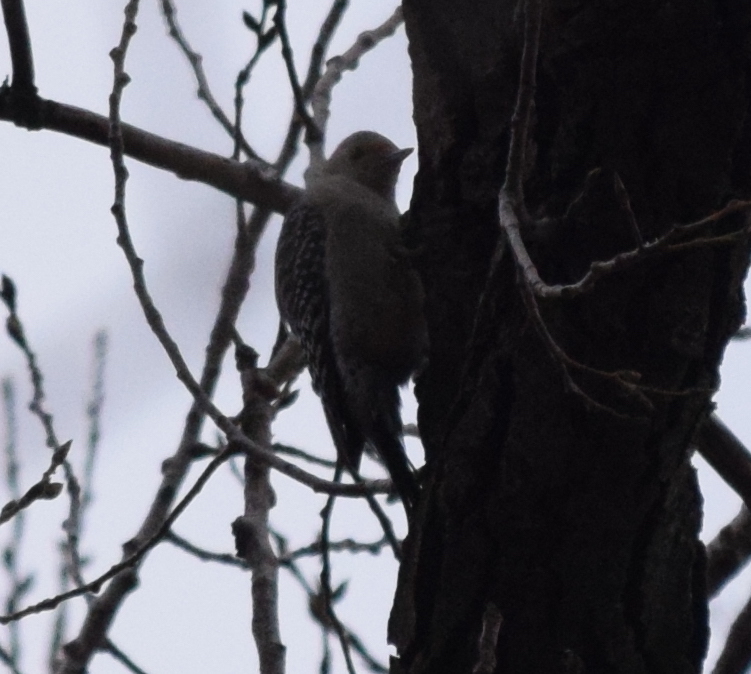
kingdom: Animalia
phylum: Chordata
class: Aves
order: Piciformes
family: Picidae
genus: Melanerpes
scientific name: Melanerpes carolinus
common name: Red-bellied woodpecker
